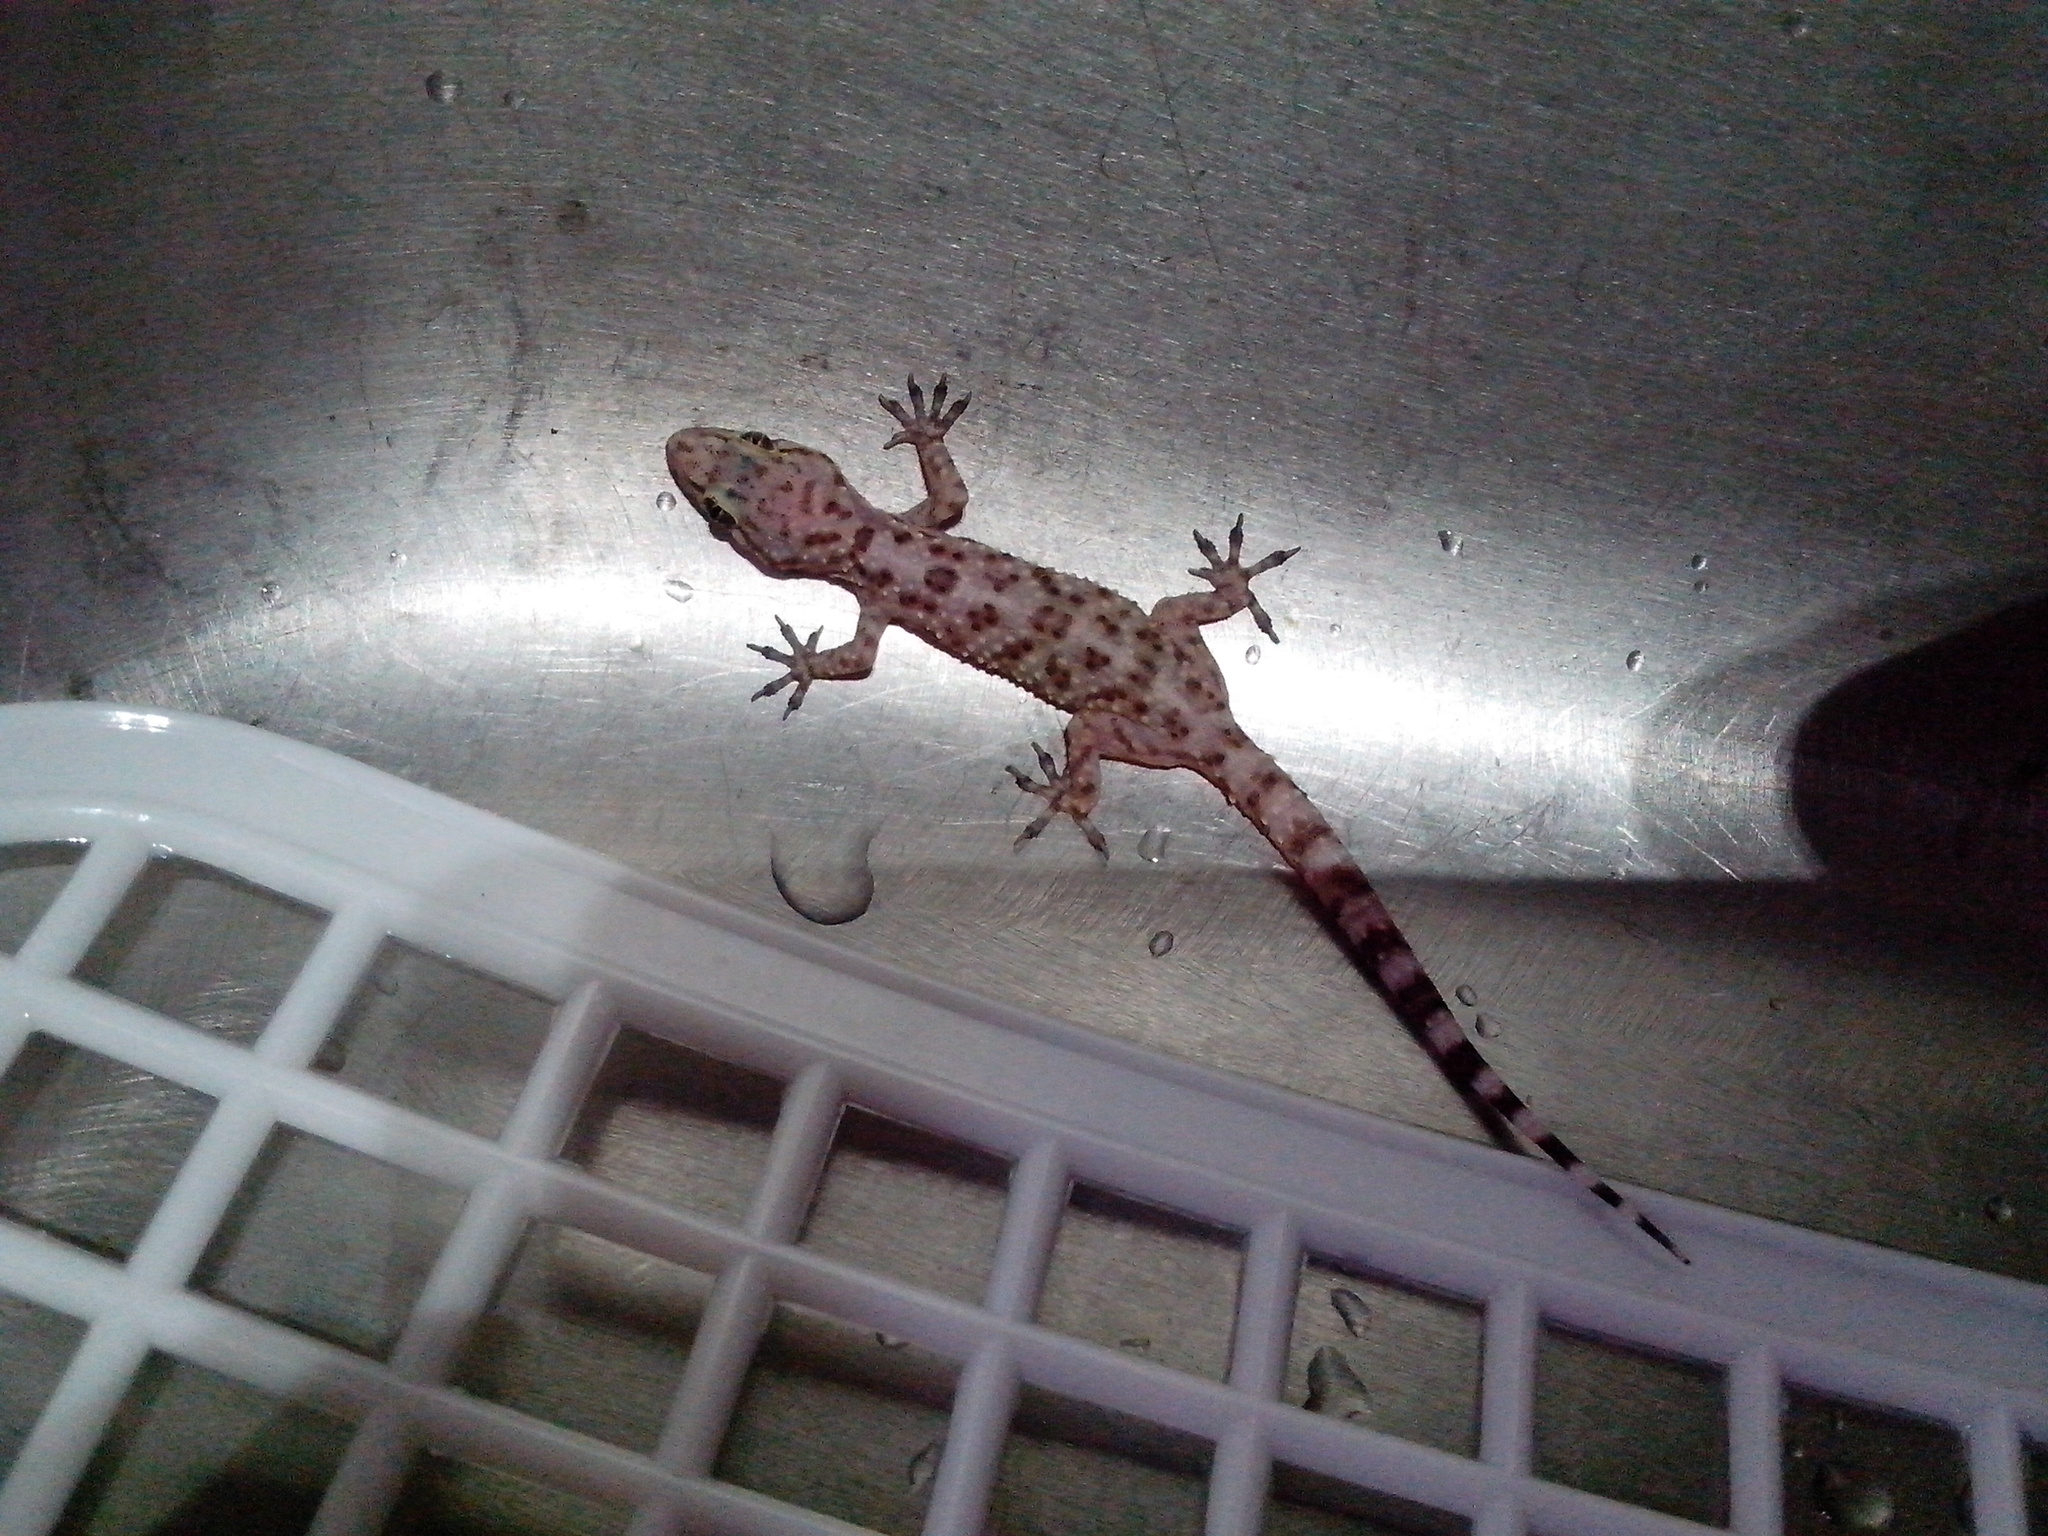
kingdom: Animalia
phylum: Chordata
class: Squamata
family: Gekkonidae
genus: Hemidactylus
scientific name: Hemidactylus turcicus
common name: Turkish gecko
